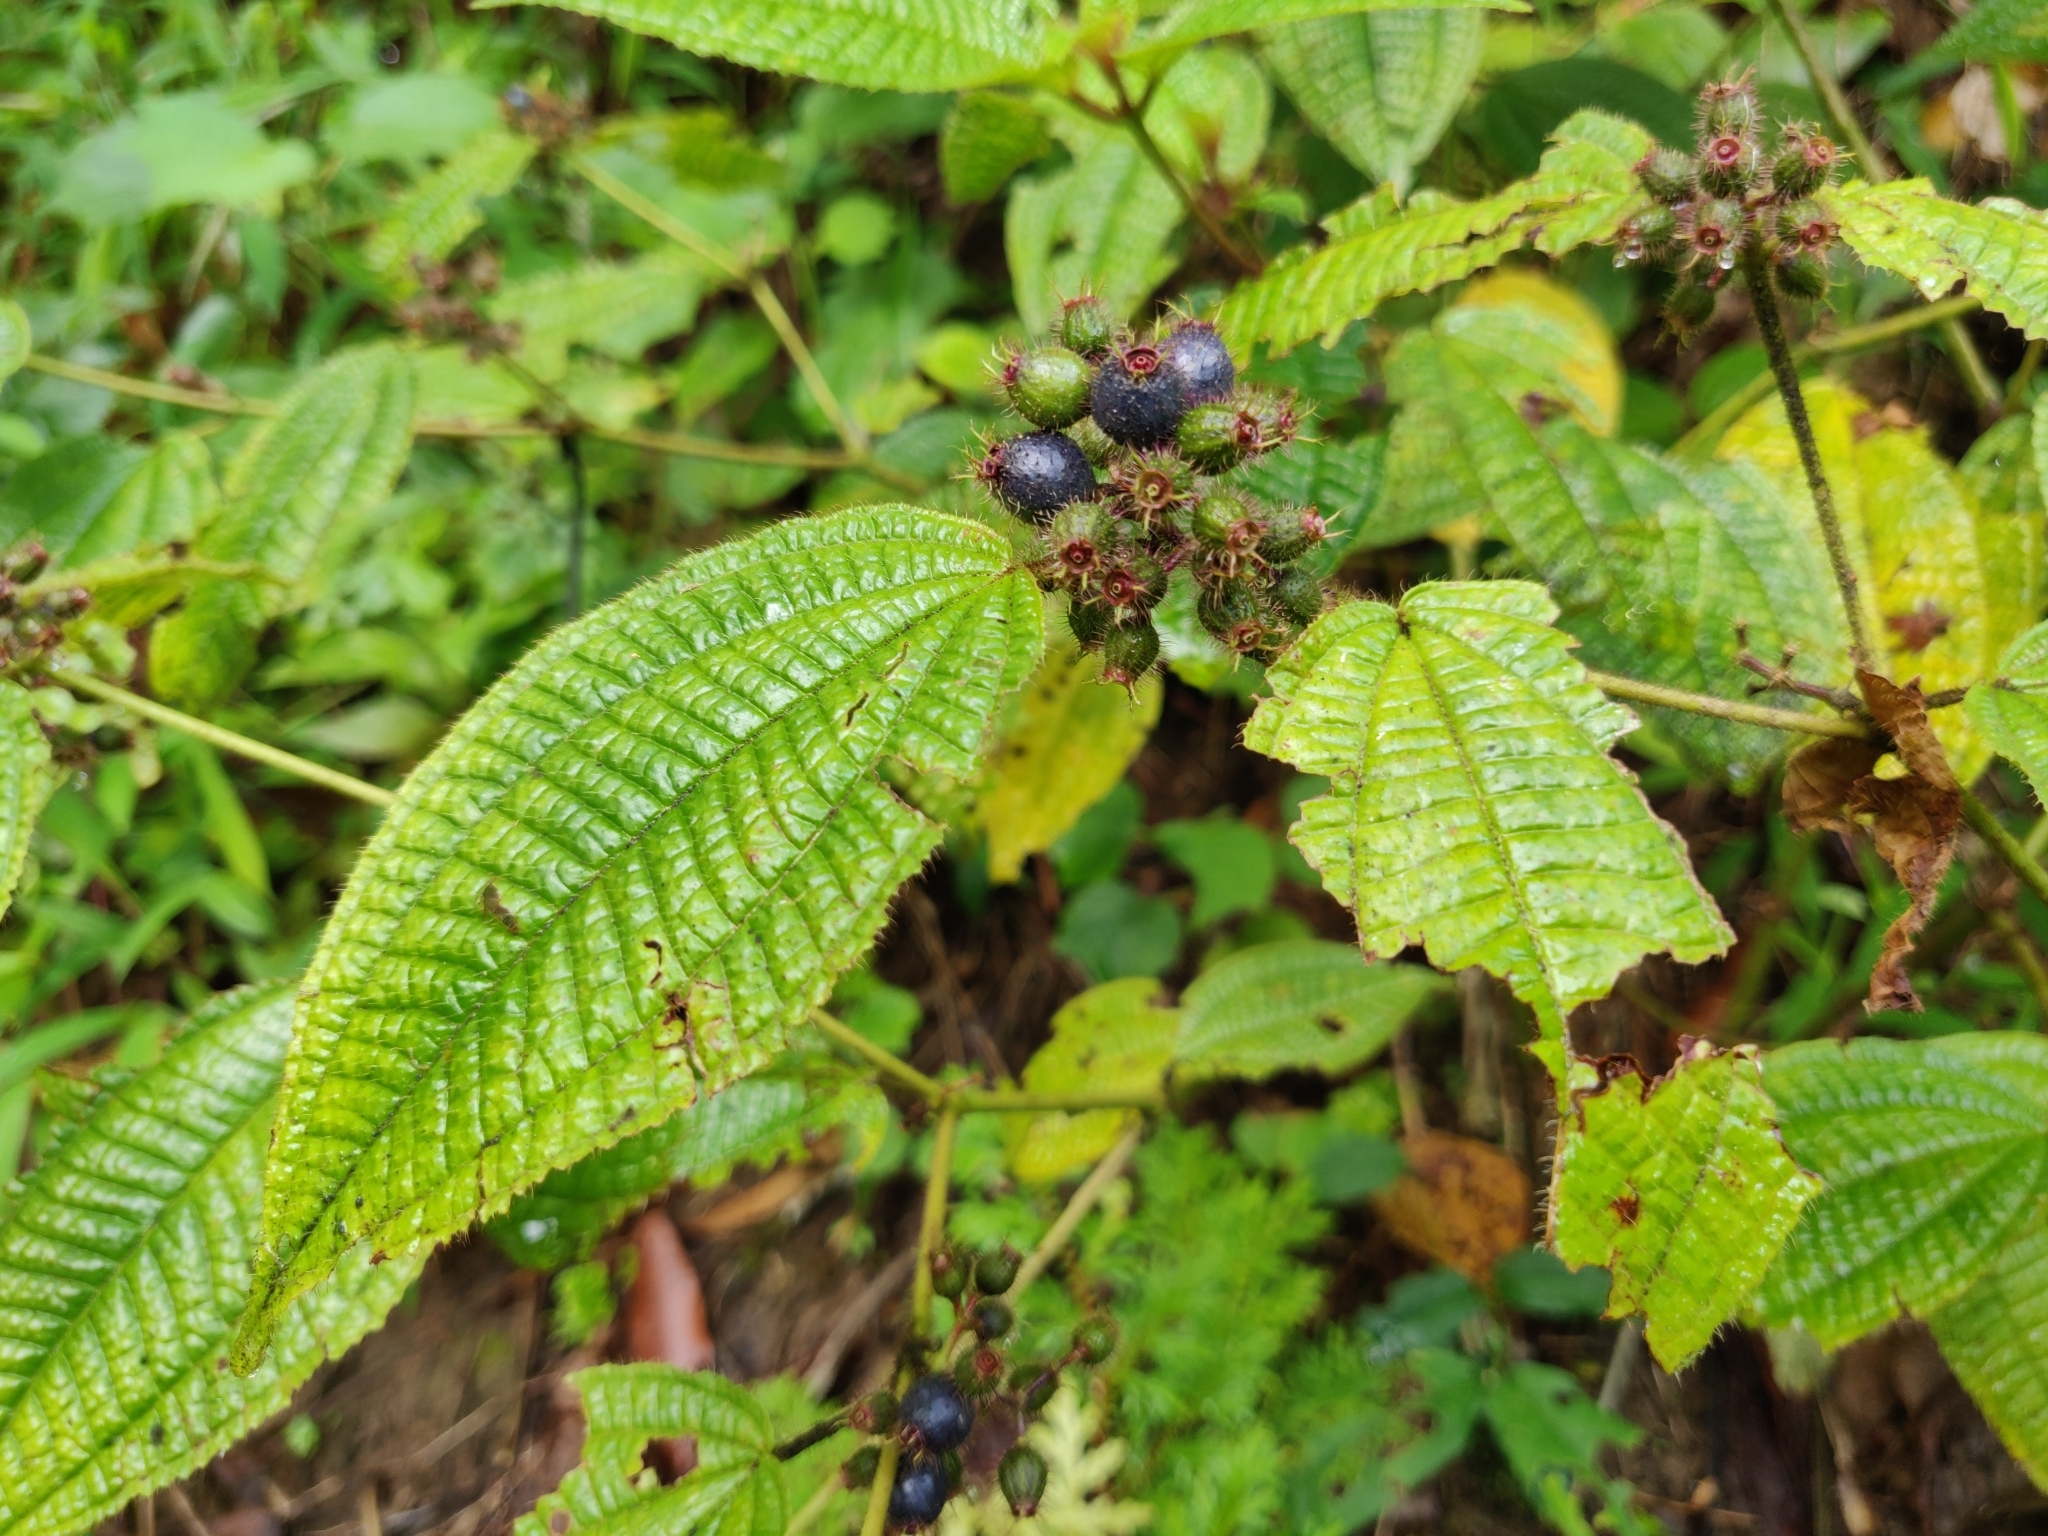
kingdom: Plantae
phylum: Tracheophyta
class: Magnoliopsida
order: Myrtales
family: Melastomataceae
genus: Miconia
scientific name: Miconia crenata
